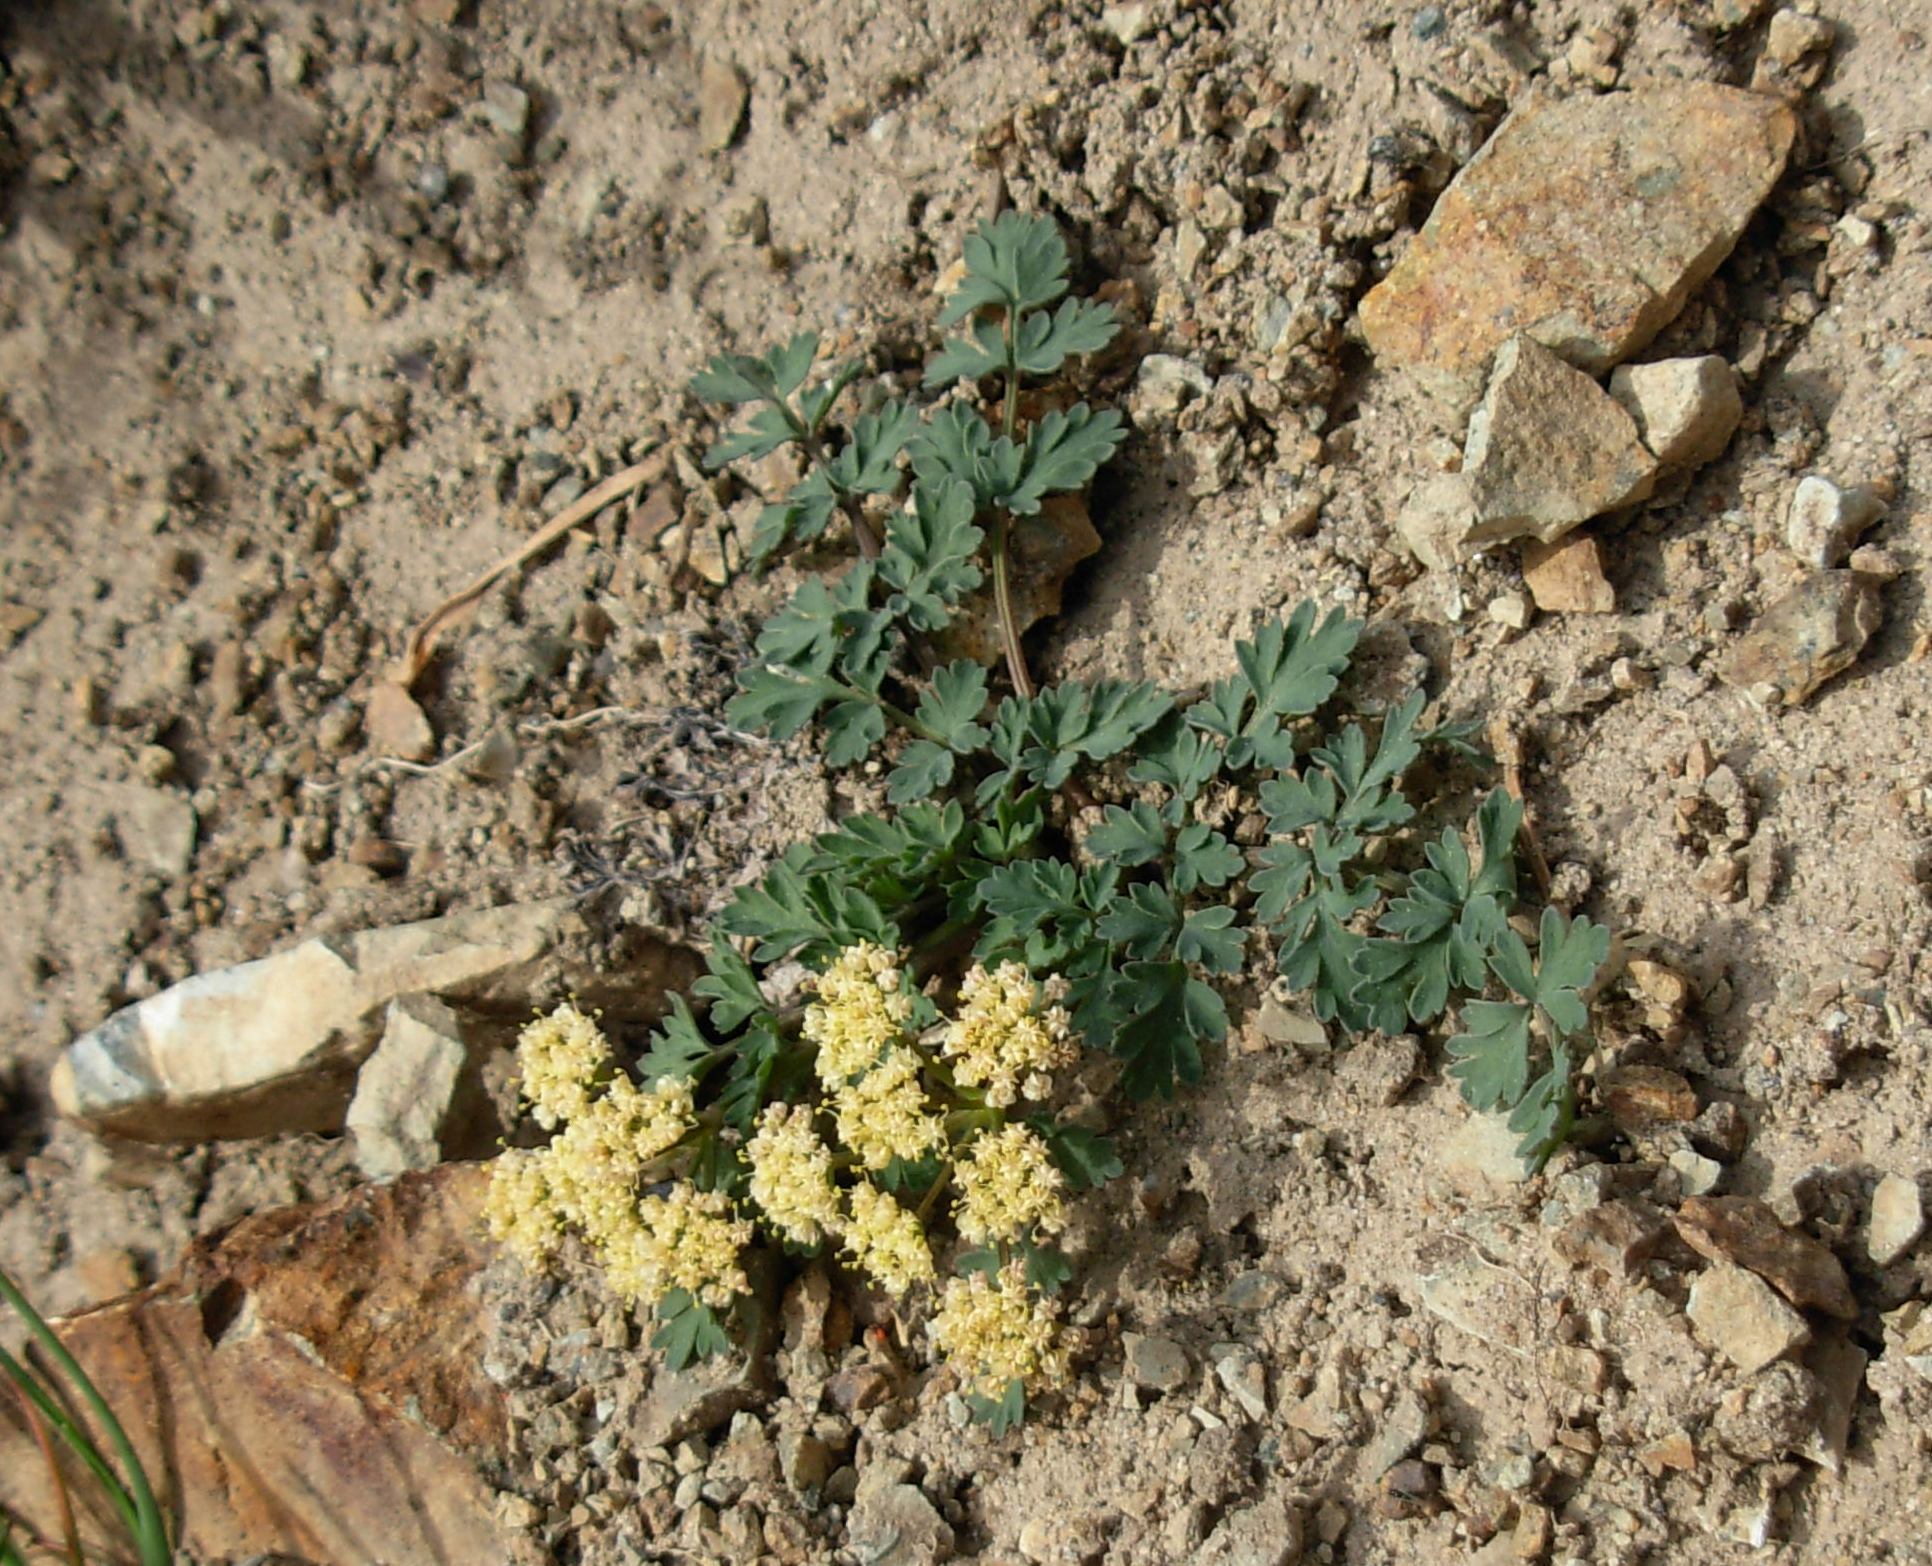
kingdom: Plantae
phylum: Tracheophyta
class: Magnoliopsida
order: Apiales
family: Apiaceae
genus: Lomatium
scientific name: Lomatium martindalei
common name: Cascade desert-parsley
